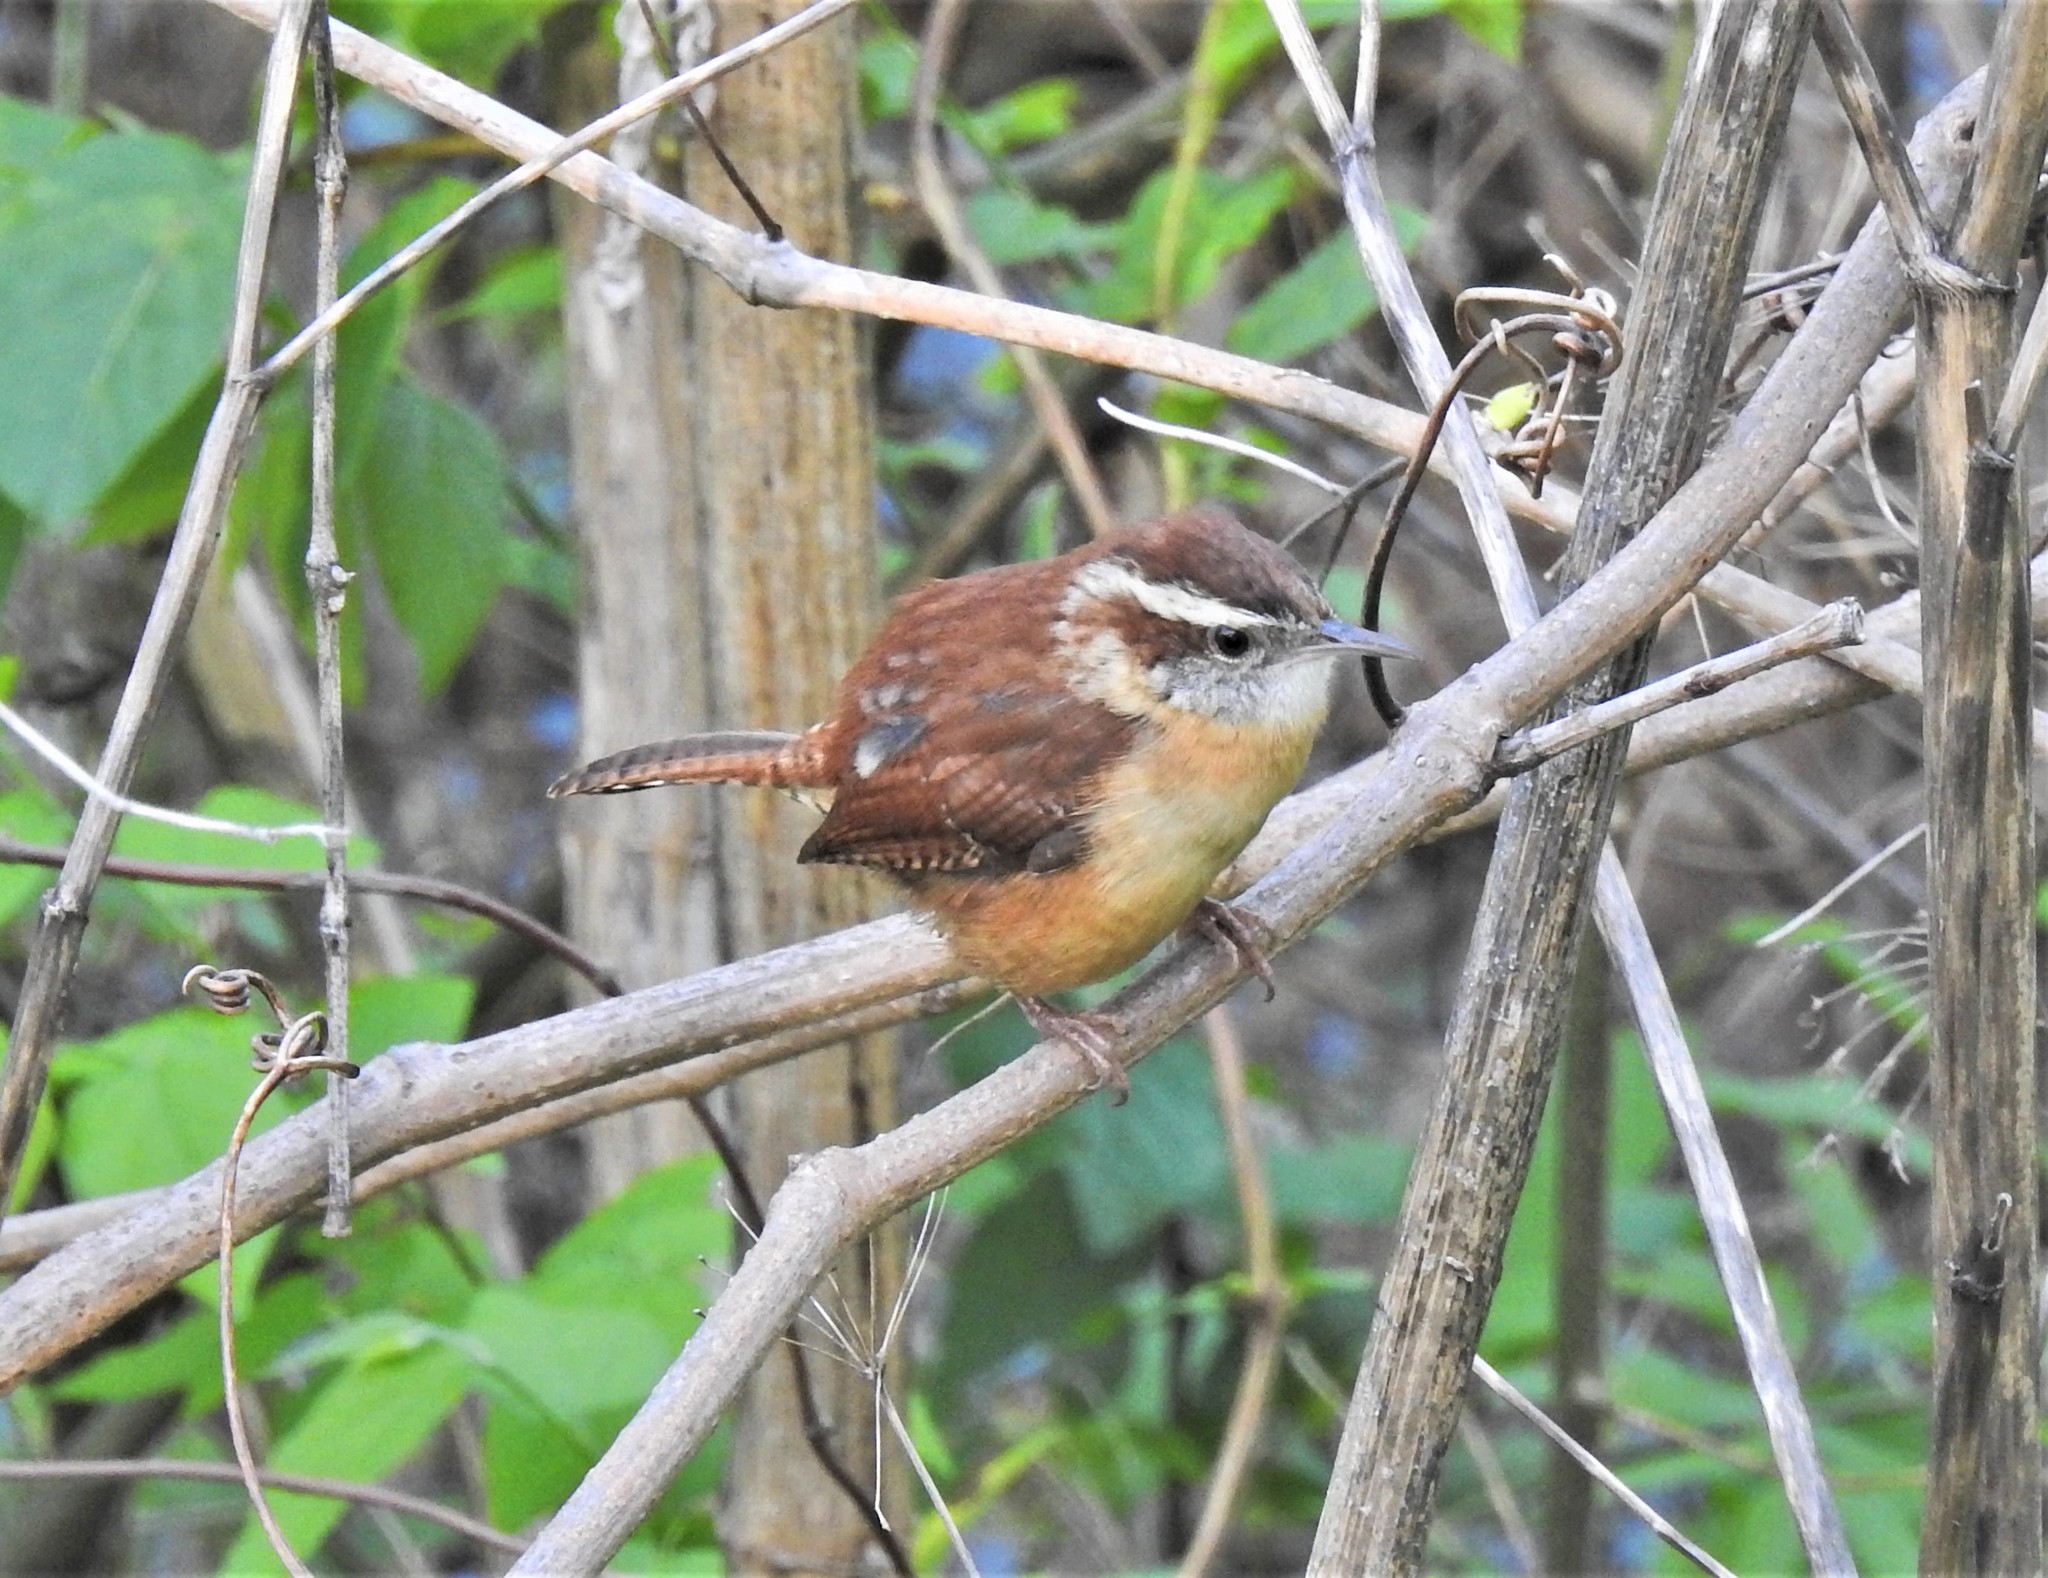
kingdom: Animalia
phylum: Chordata
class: Aves
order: Passeriformes
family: Troglodytidae
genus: Thryothorus
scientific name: Thryothorus ludovicianus
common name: Carolina wren
